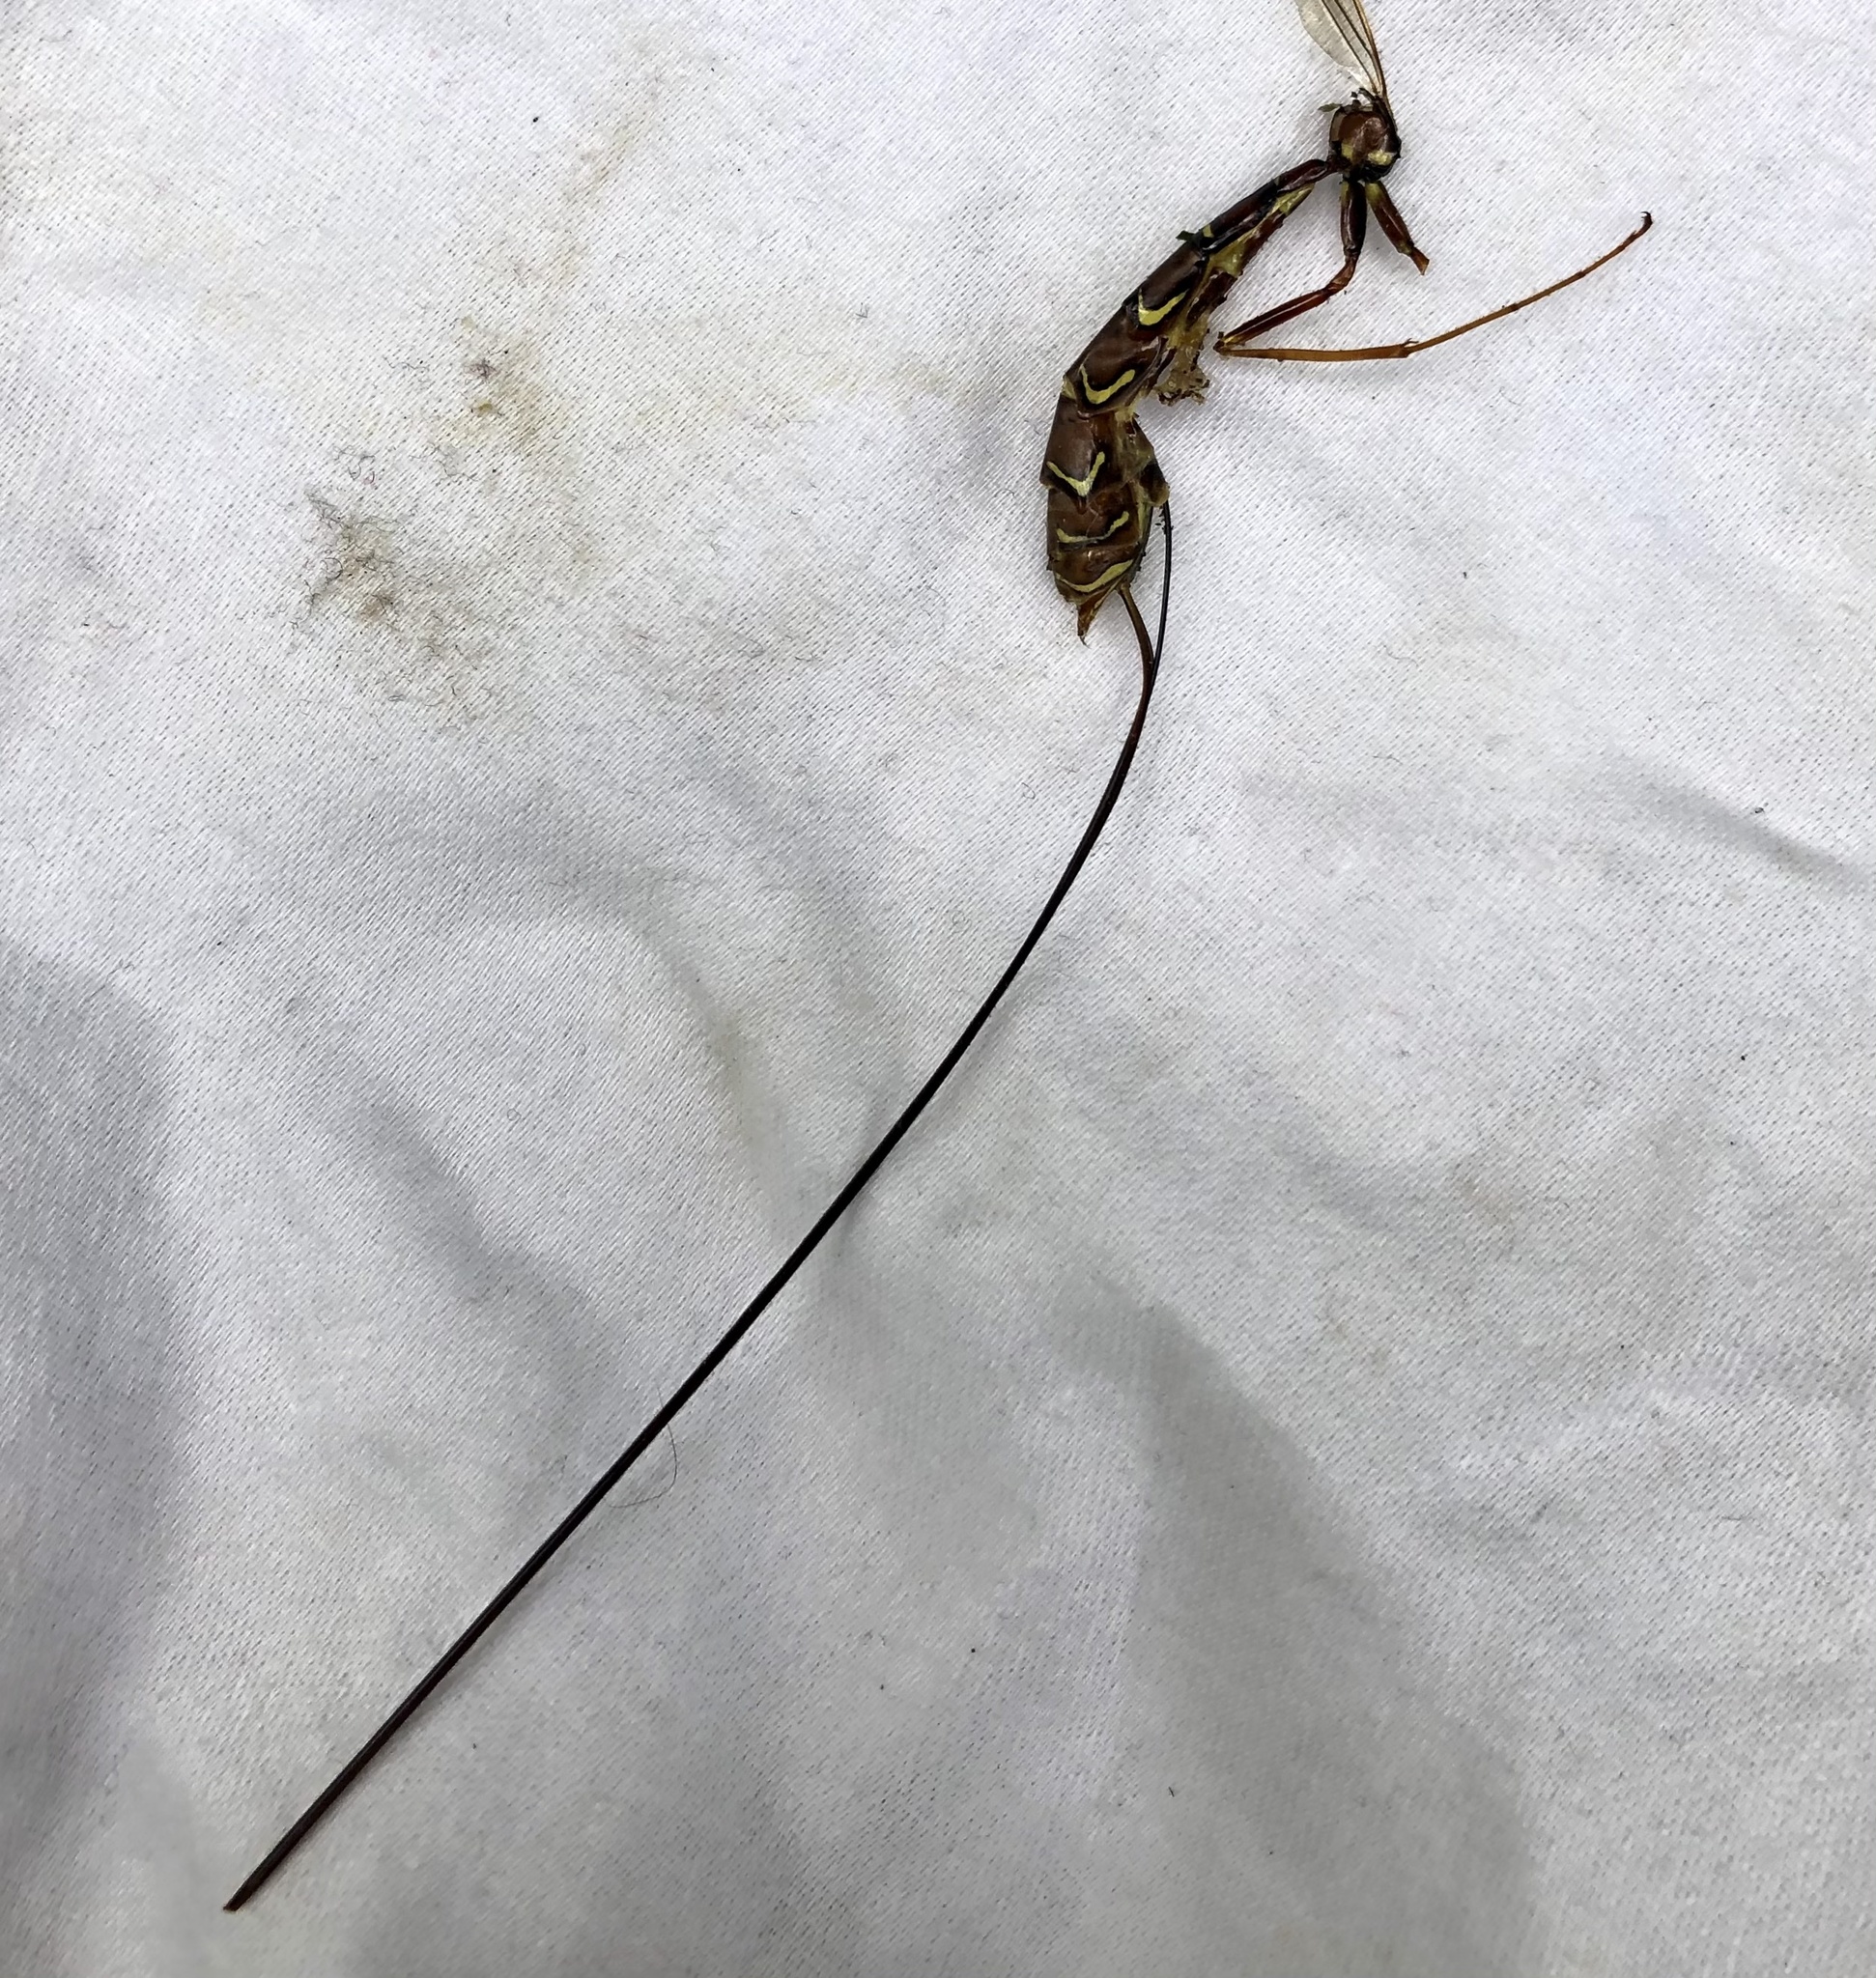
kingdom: Animalia
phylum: Arthropoda
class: Insecta
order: Hymenoptera
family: Ichneumonidae
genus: Megarhyssa
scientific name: Megarhyssa macrura
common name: Long-tailed giant ichneumonid wasp
